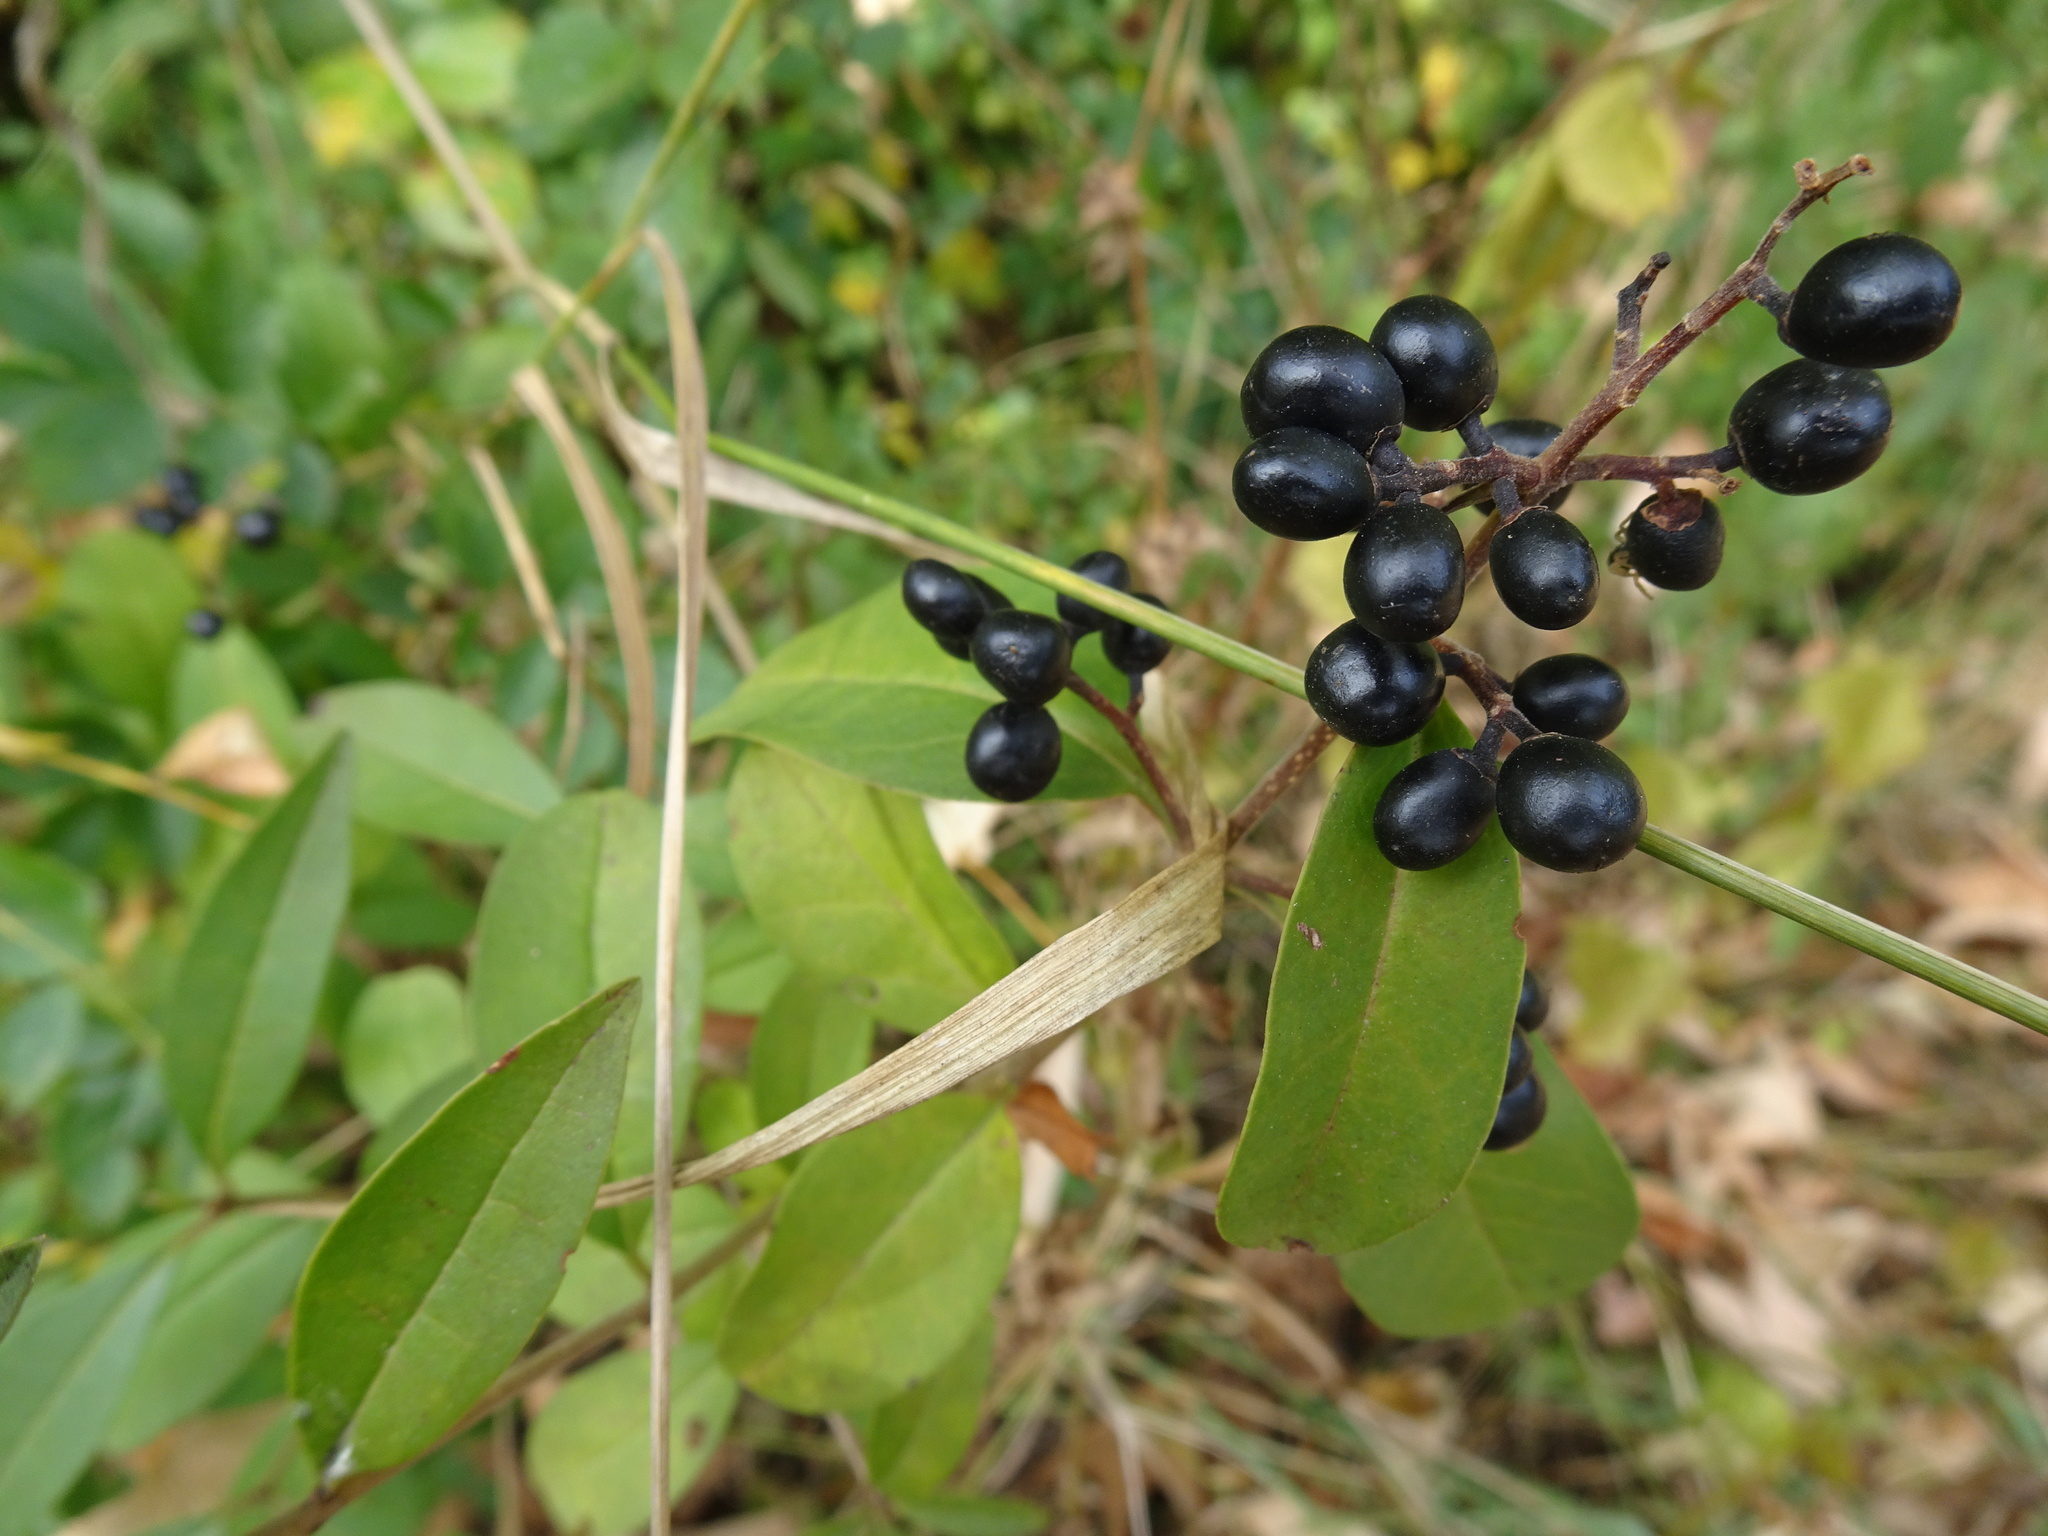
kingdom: Plantae
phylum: Tracheophyta
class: Magnoliopsida
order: Lamiales
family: Oleaceae
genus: Ligustrum
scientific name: Ligustrum vulgare
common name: Wild privet
